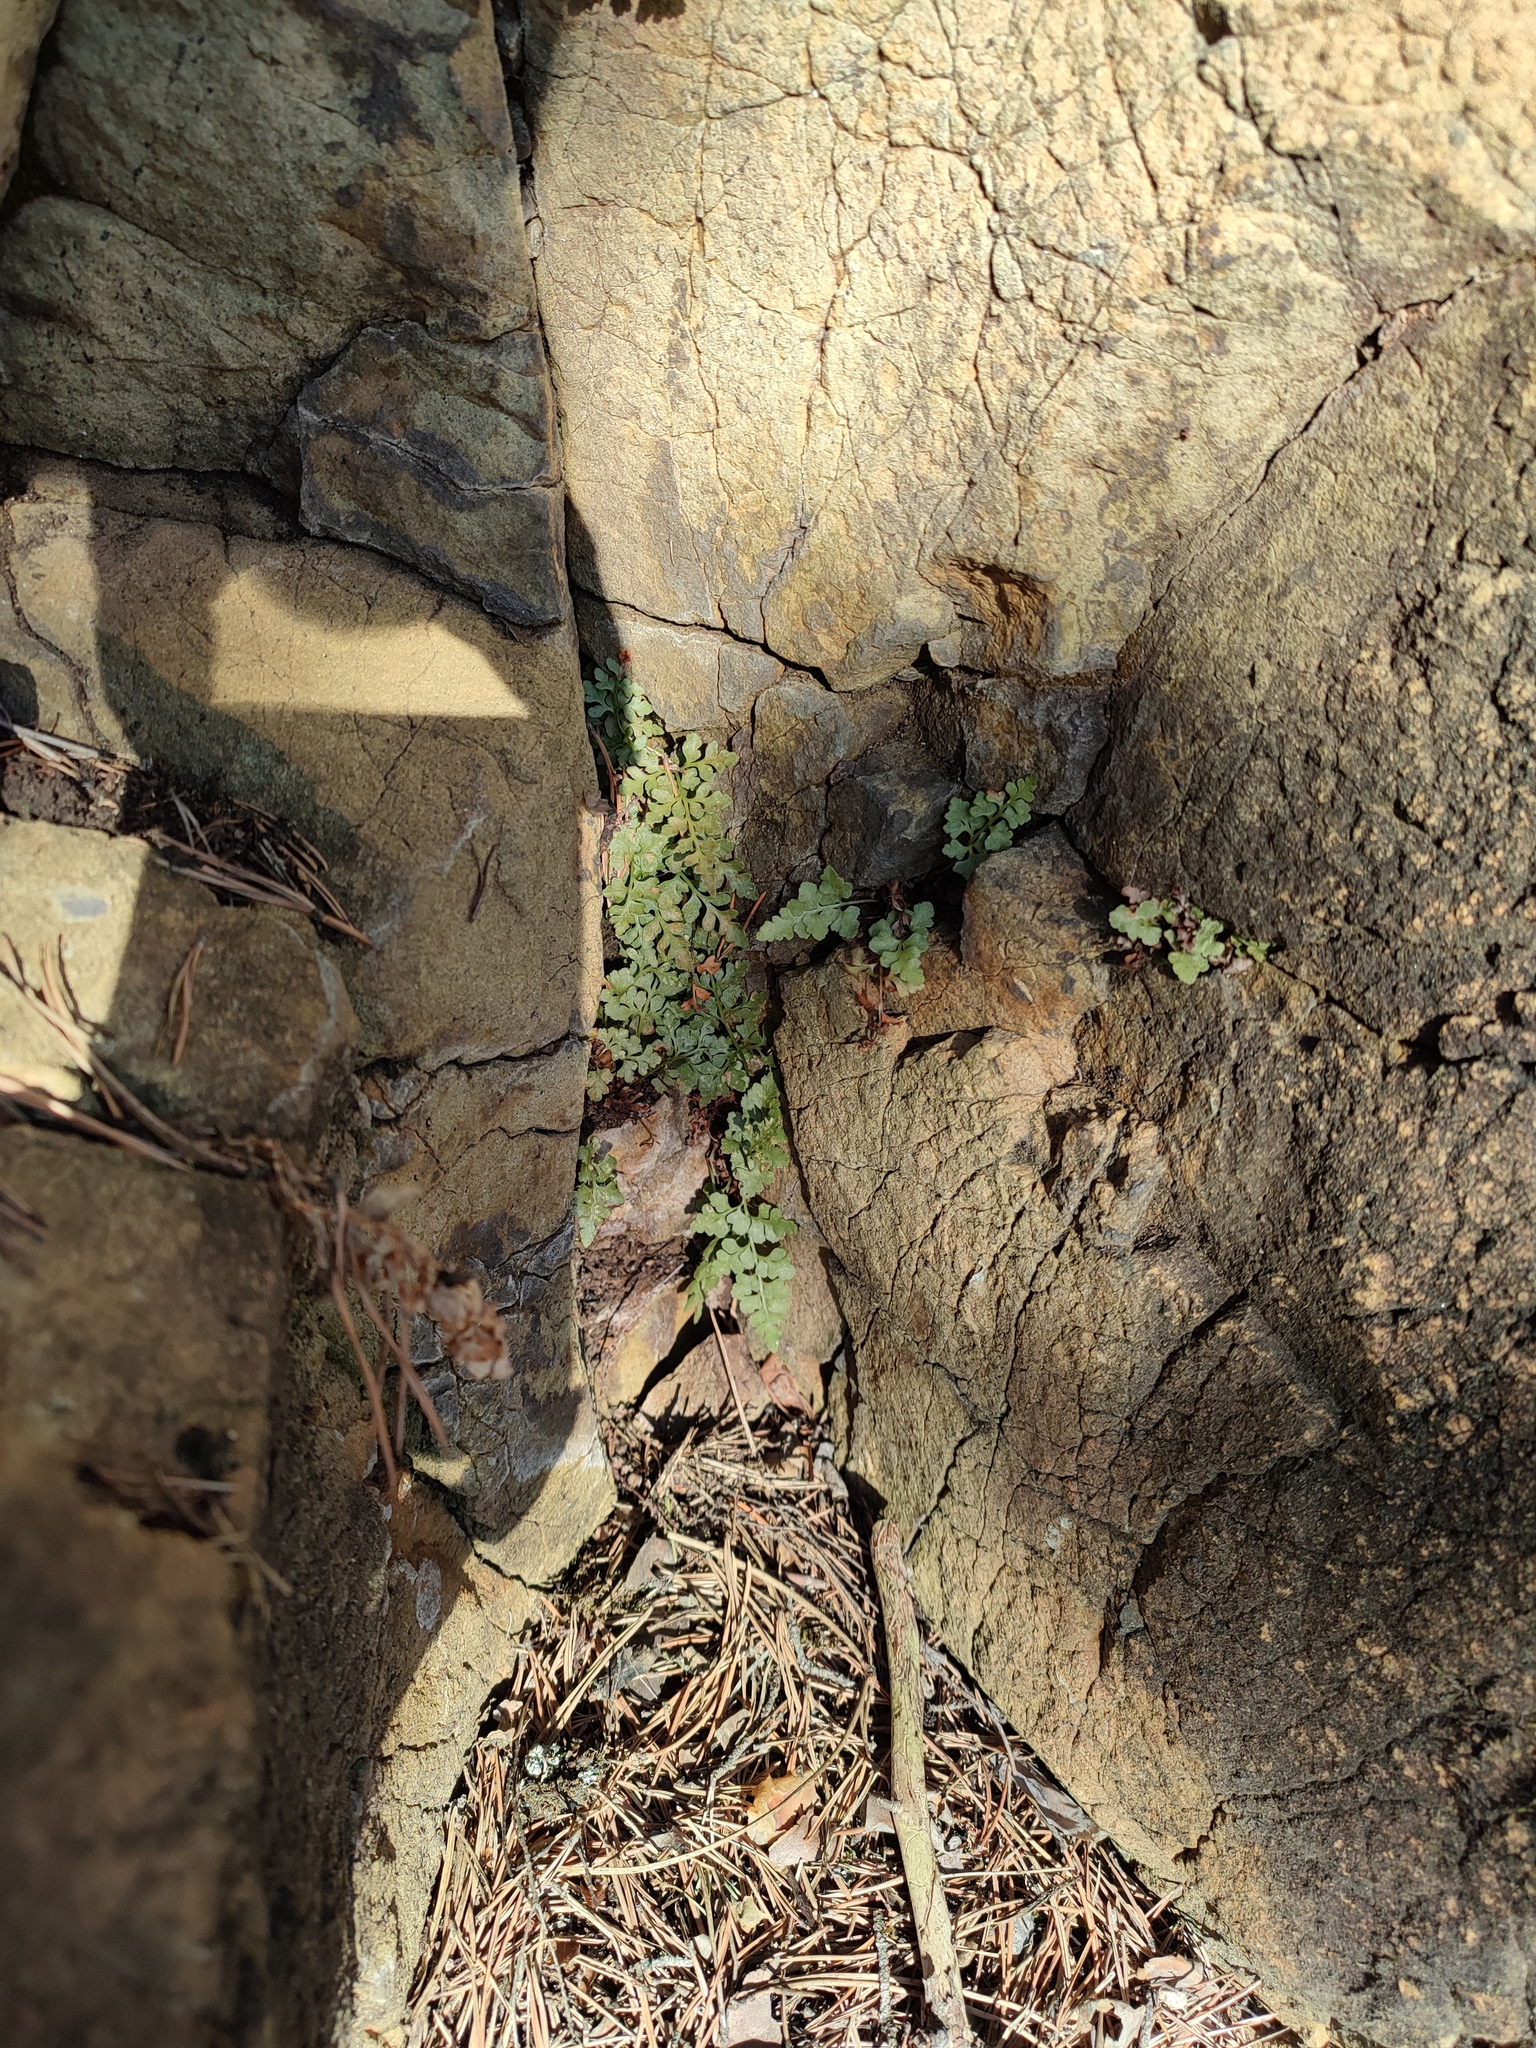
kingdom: Plantae
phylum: Tracheophyta
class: Polypodiopsida
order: Polypodiales
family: Aspleniaceae
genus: Asplenium
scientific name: Asplenium cuneifolium
